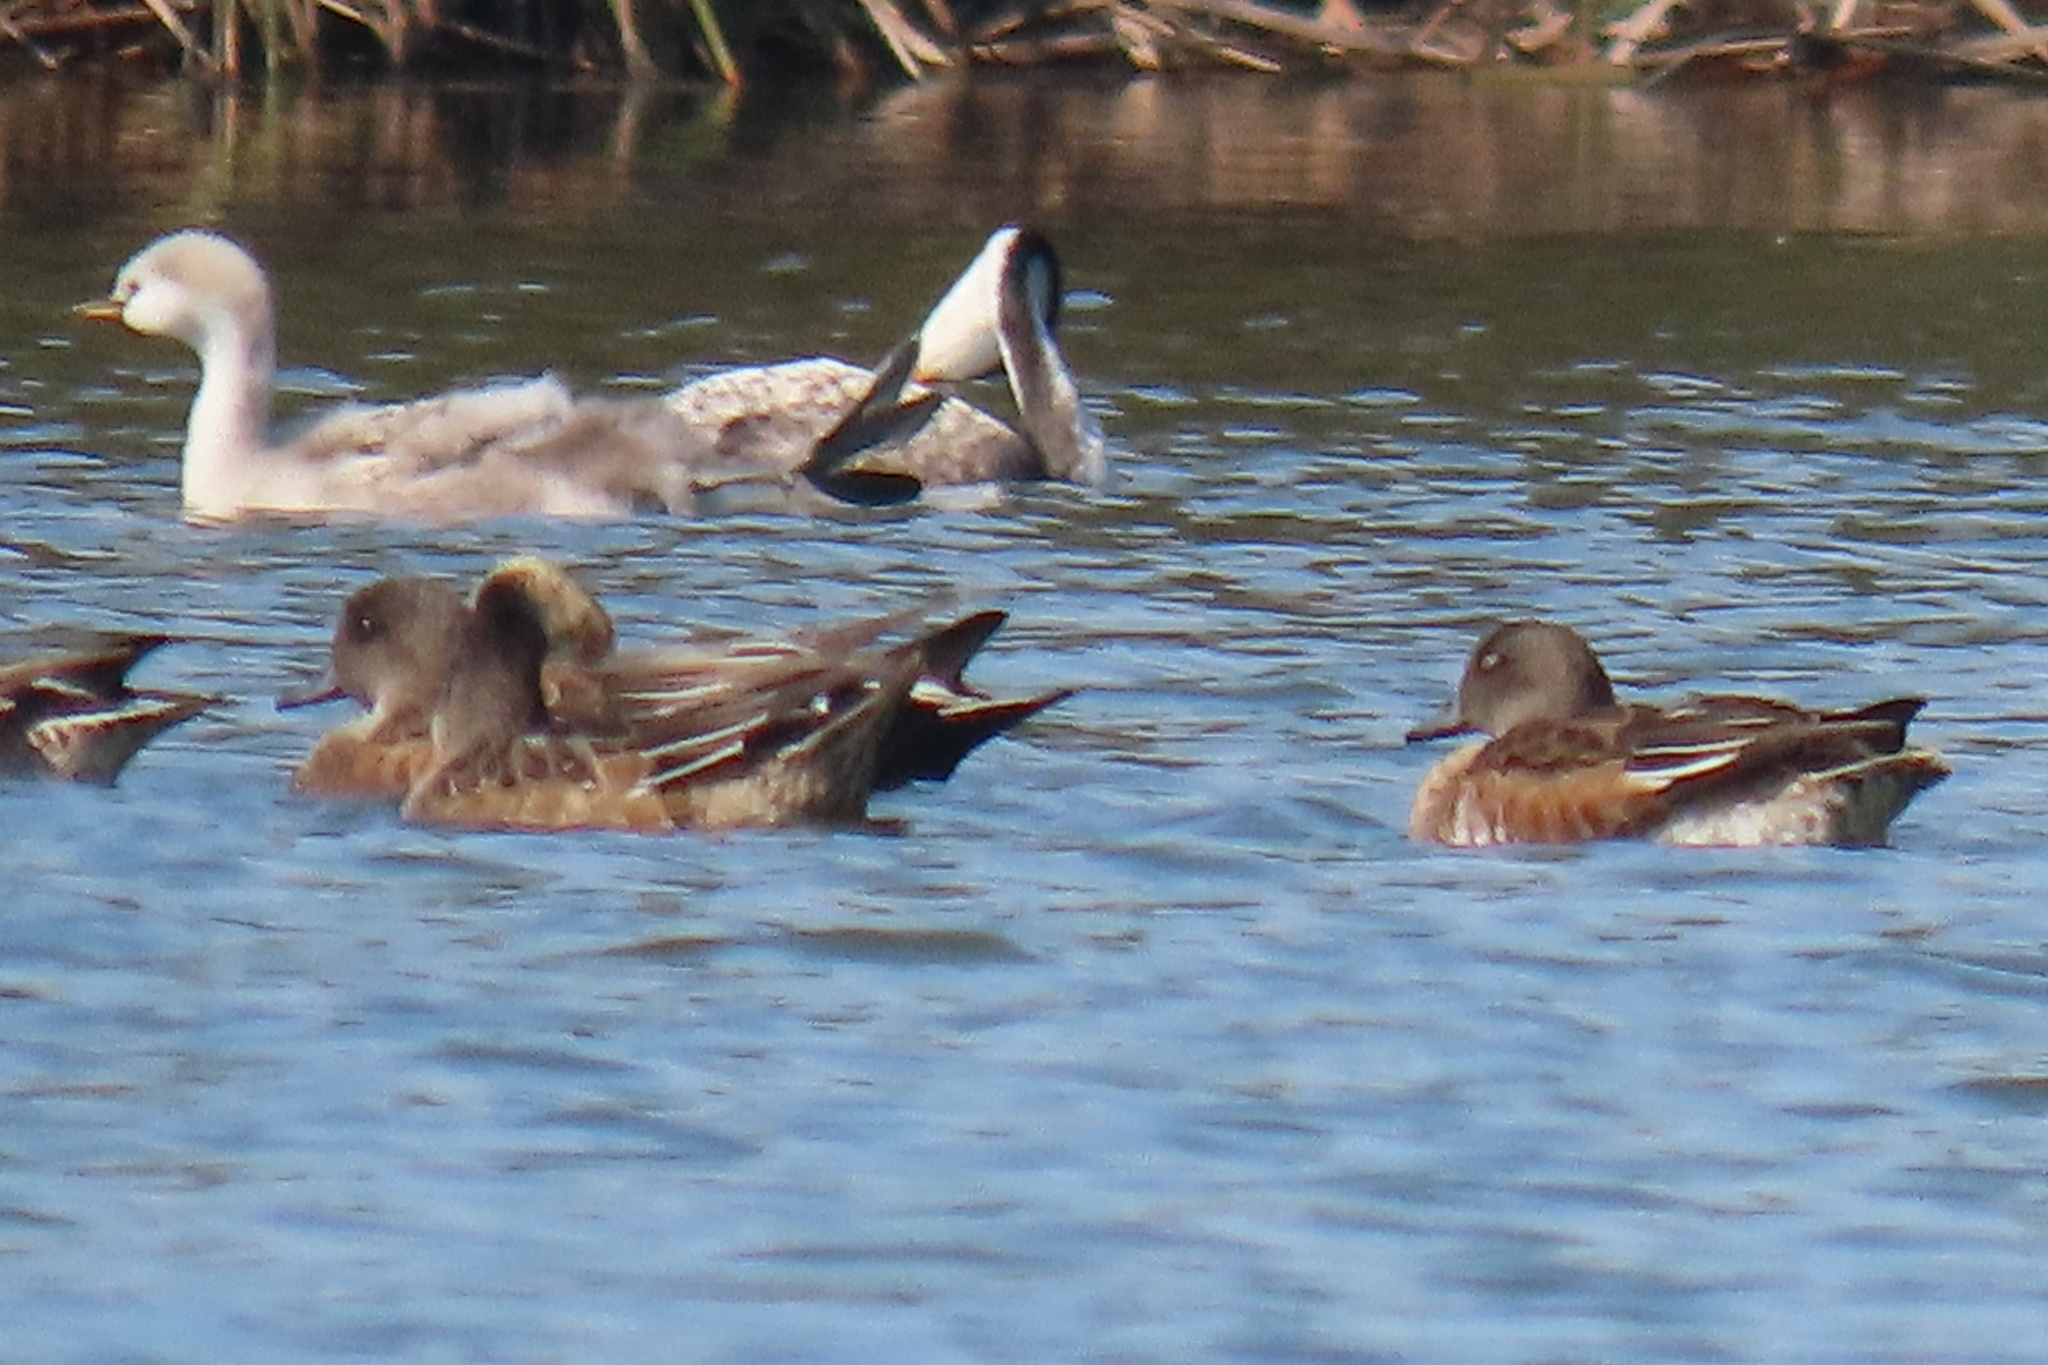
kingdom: Animalia
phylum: Chordata
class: Aves
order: Podicipediformes
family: Podicipedidae
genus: Aechmophorus
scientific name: Aechmophorus clarkii
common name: Clark's grebe
